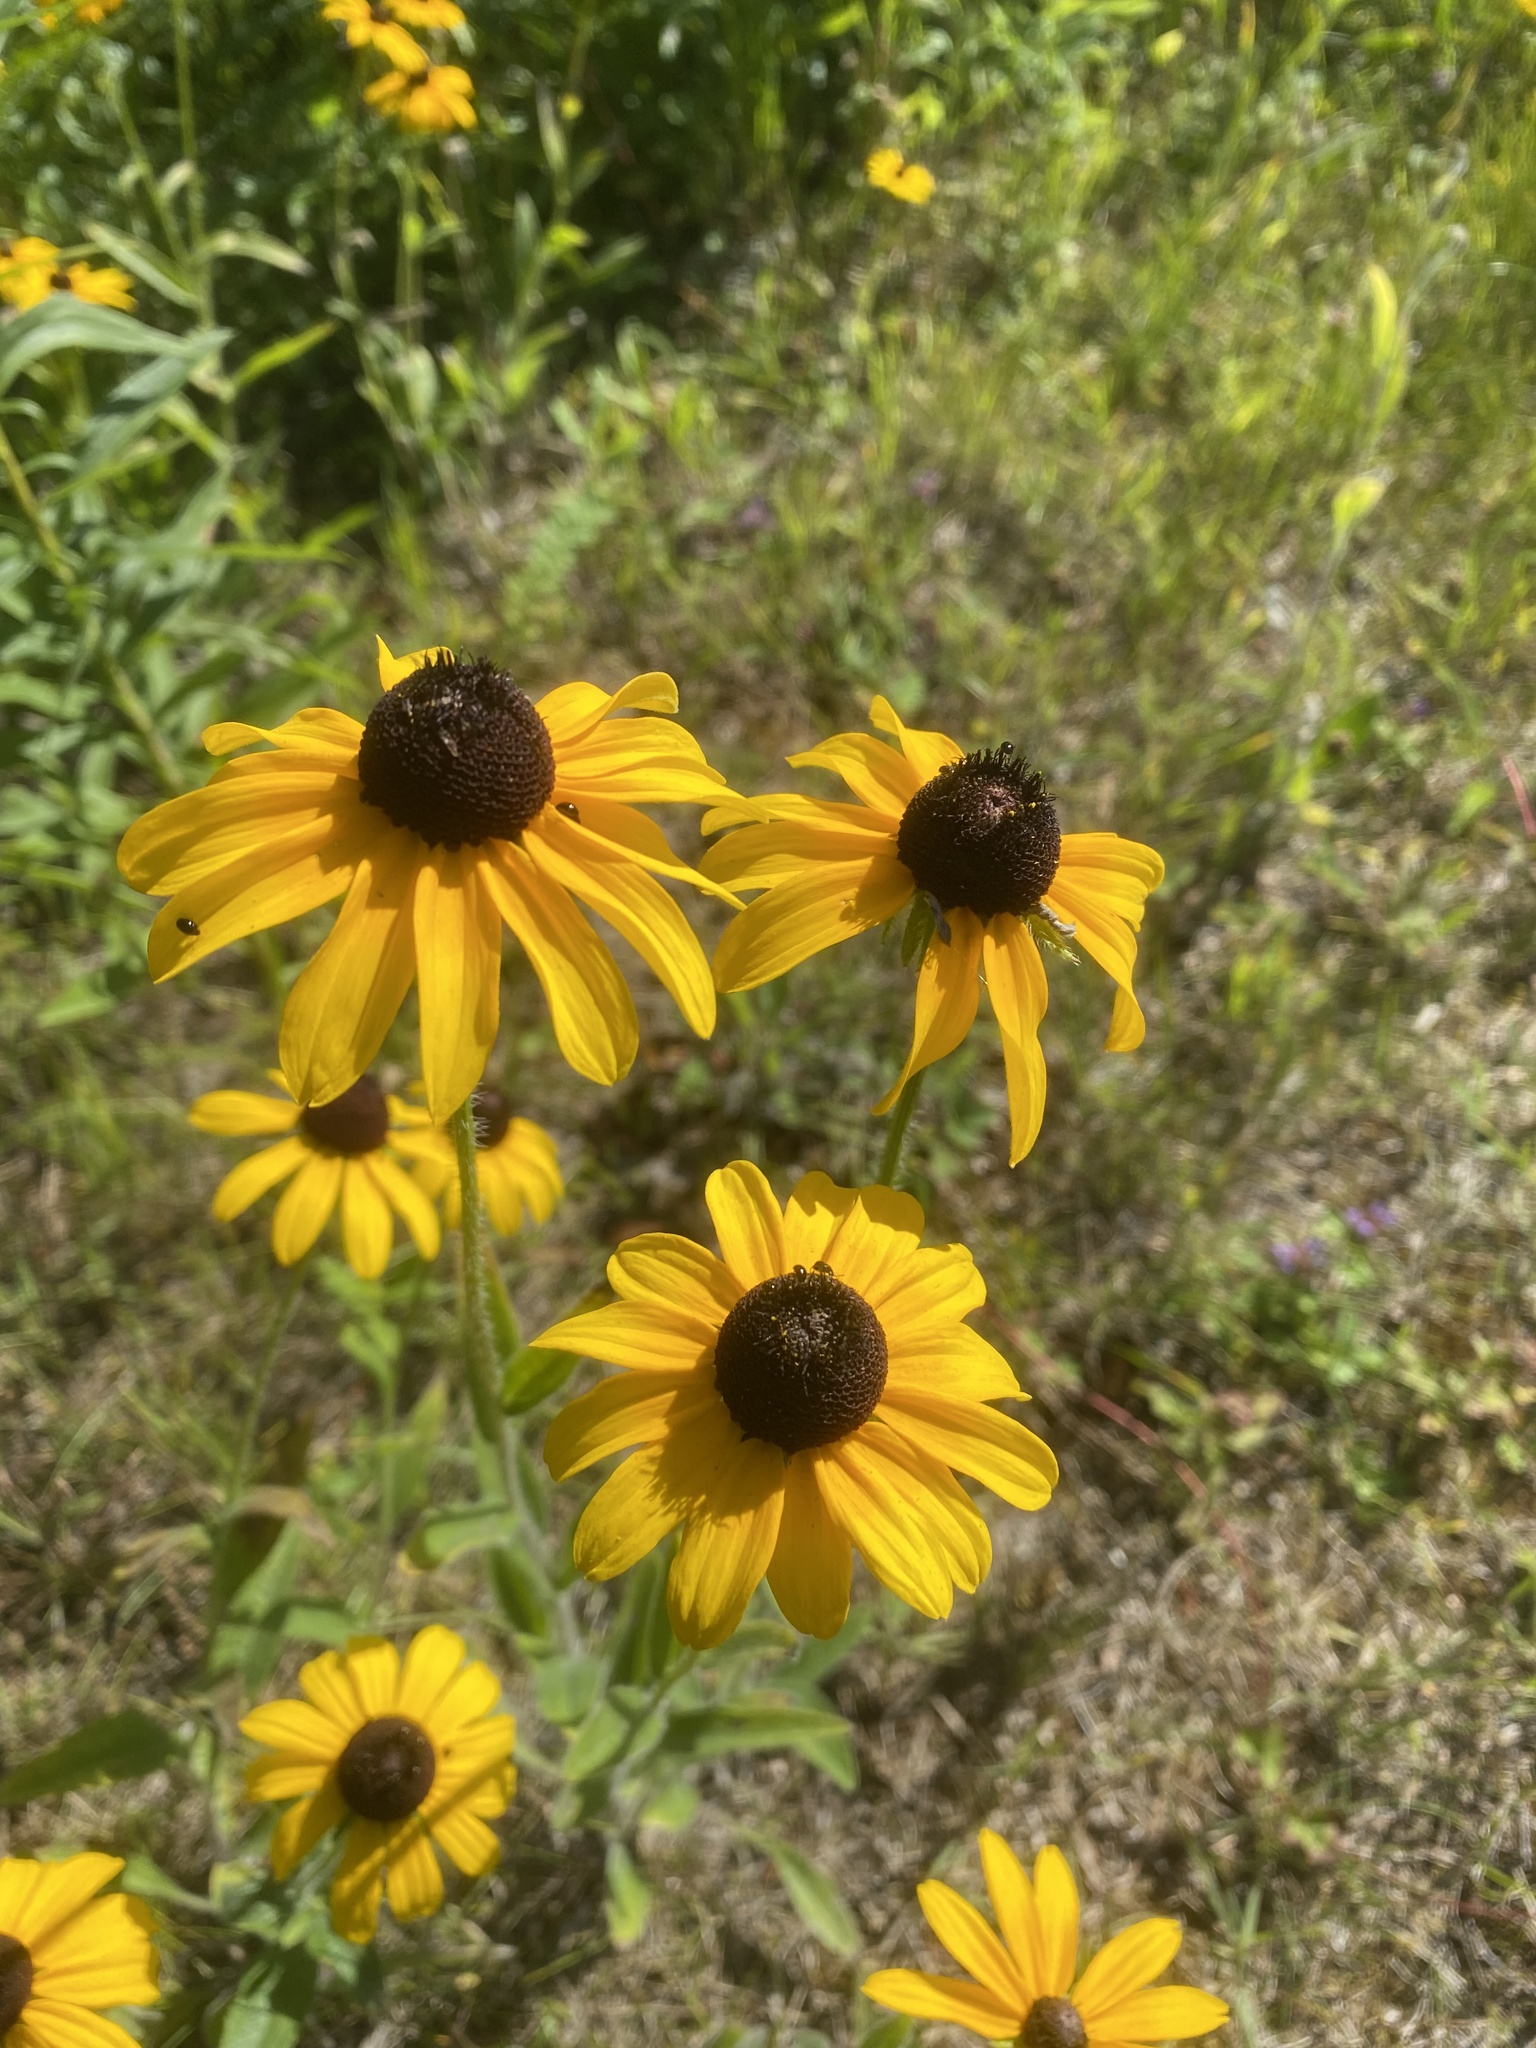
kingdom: Plantae
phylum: Tracheophyta
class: Magnoliopsida
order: Asterales
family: Asteraceae
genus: Rudbeckia
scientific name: Rudbeckia hirta
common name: Black-eyed-susan
